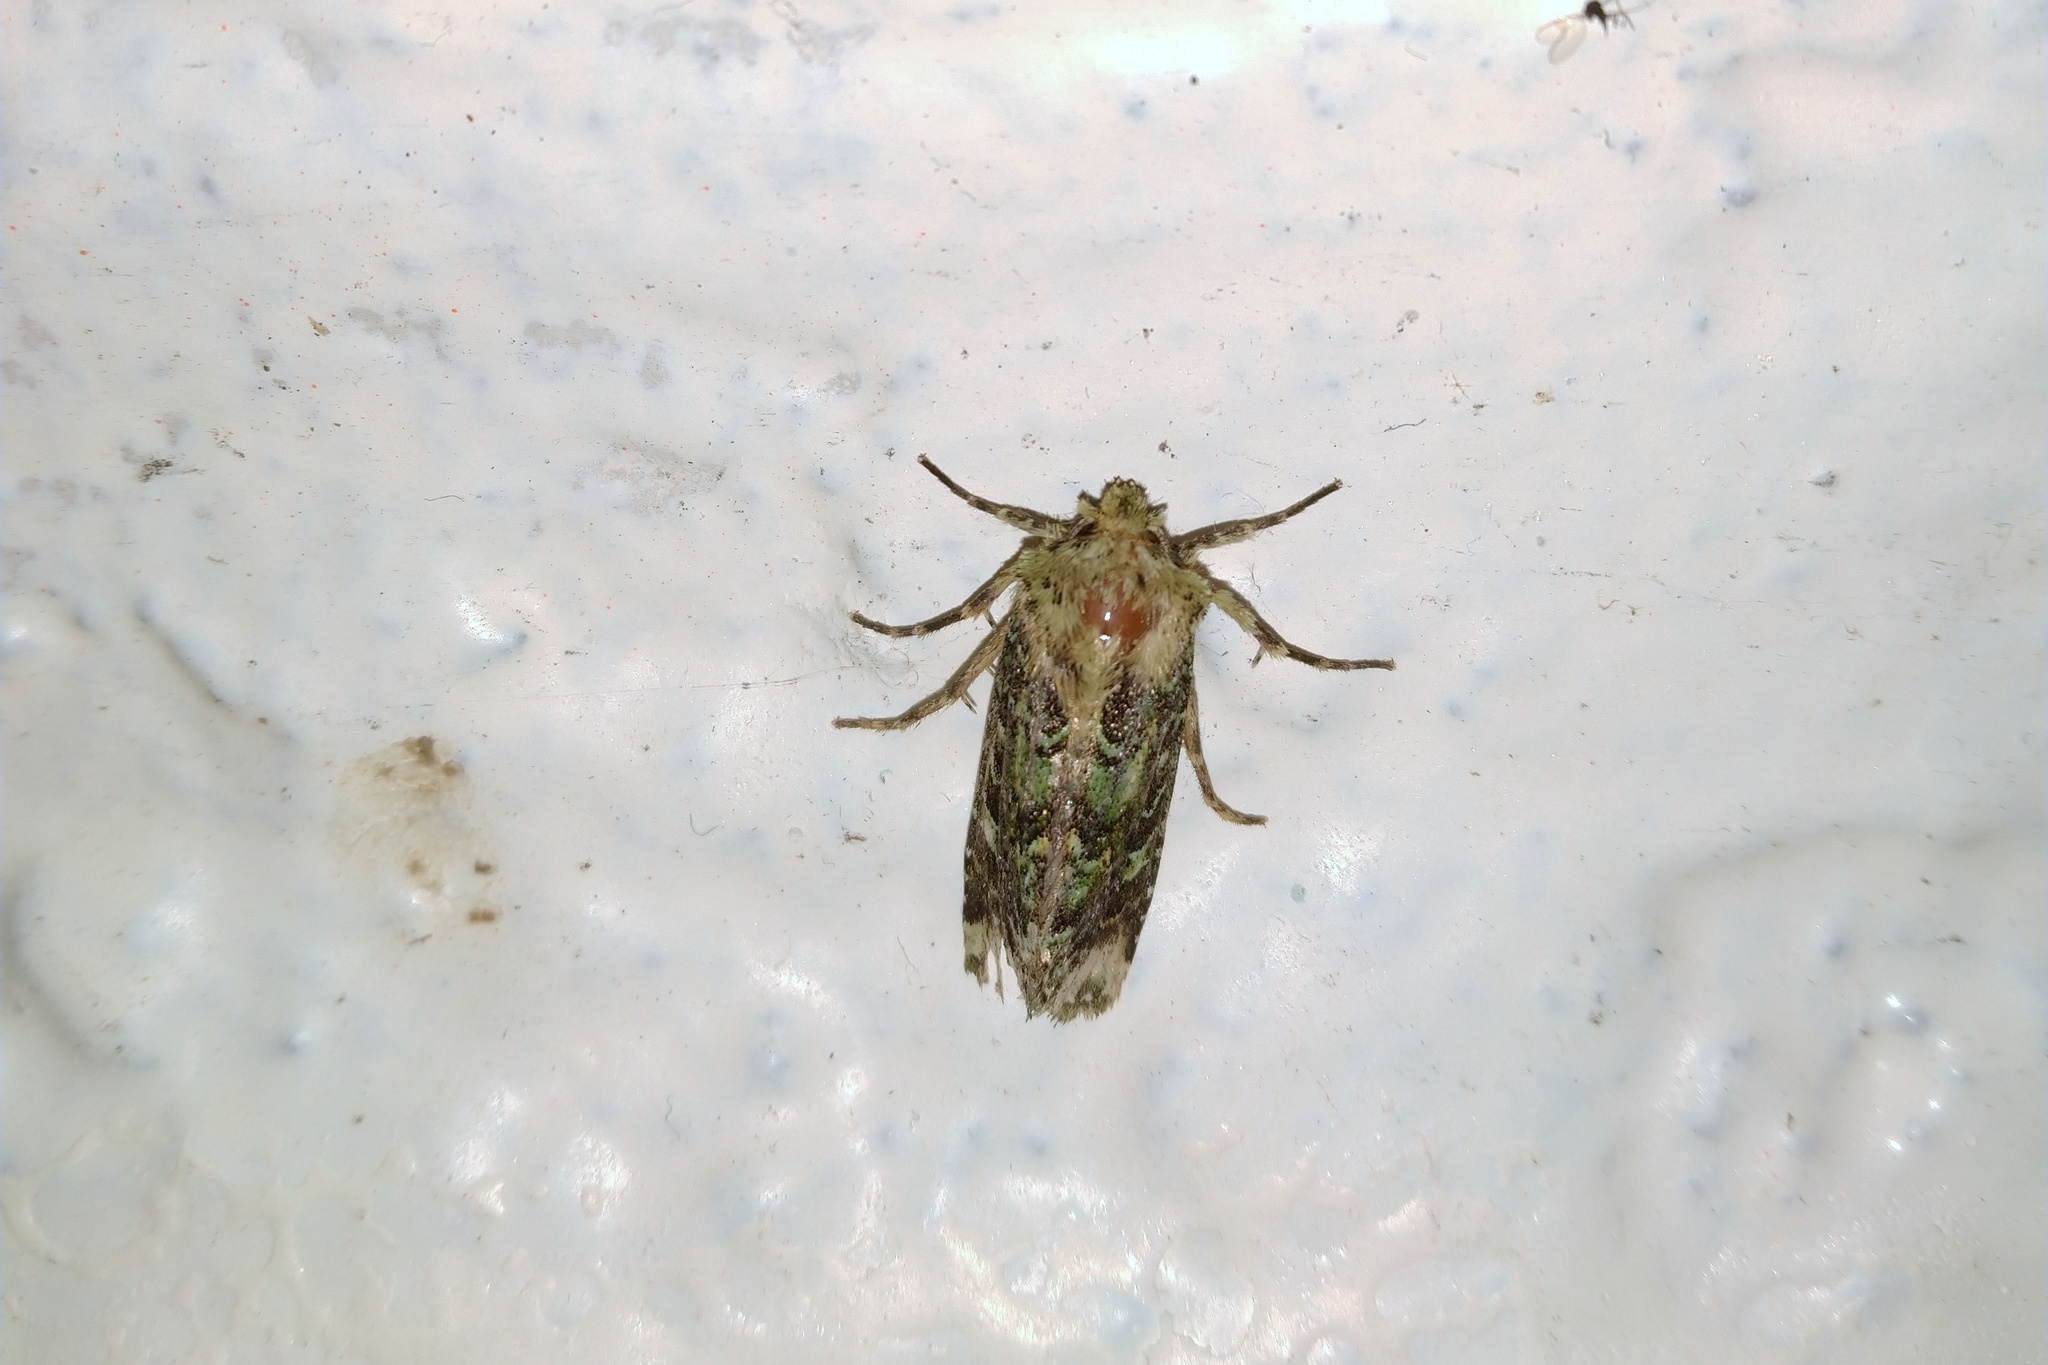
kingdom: Animalia
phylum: Arthropoda
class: Insecta
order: Lepidoptera
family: Noctuidae
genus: Feredayia
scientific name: Feredayia grammosa
